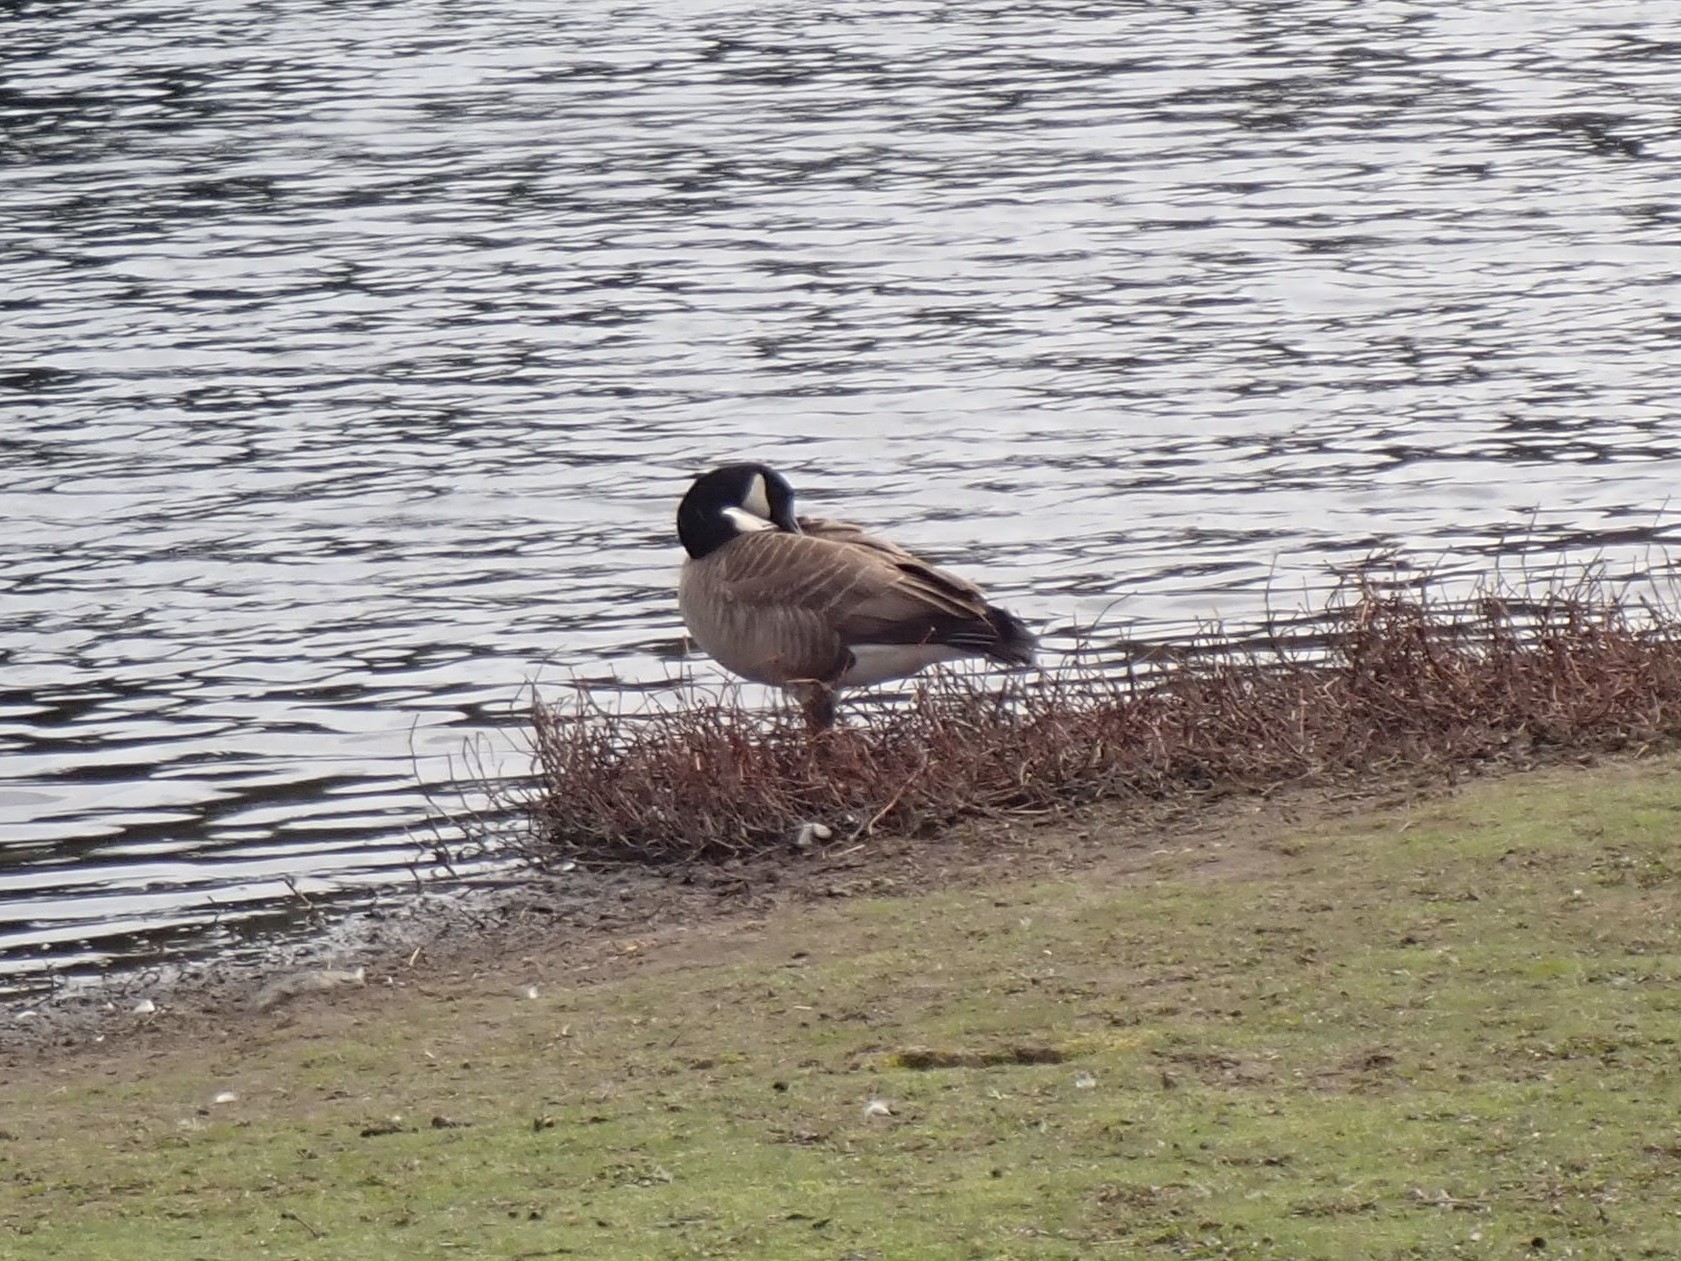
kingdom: Animalia
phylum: Chordata
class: Aves
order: Anseriformes
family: Anatidae
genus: Branta
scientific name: Branta canadensis
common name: Canada goose
